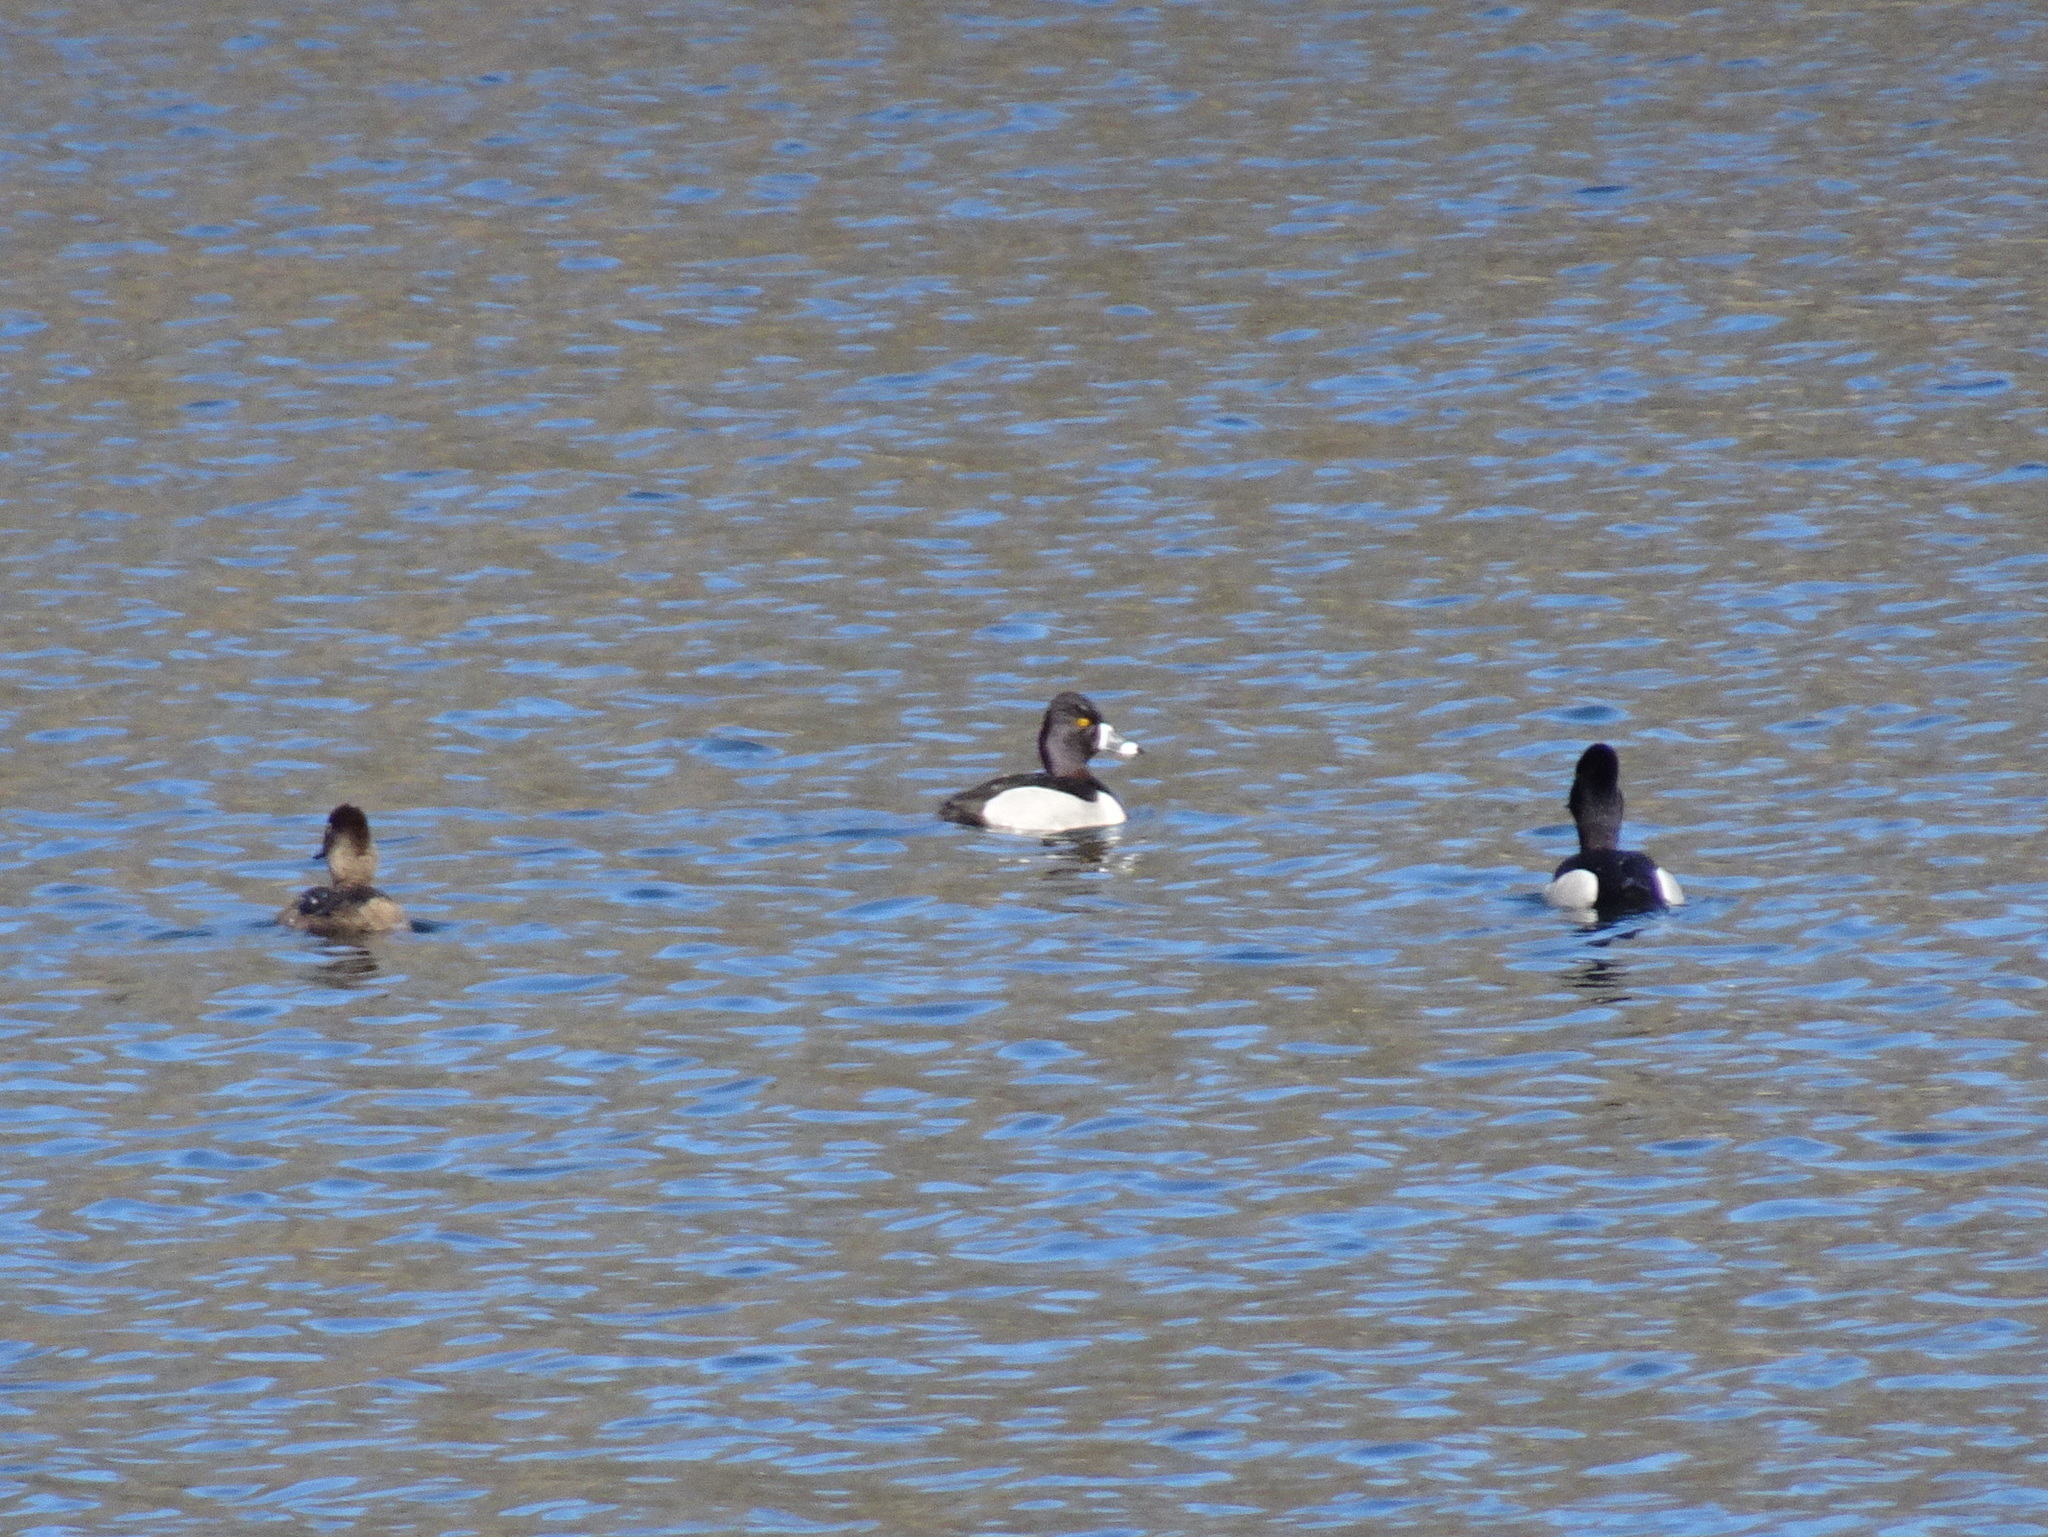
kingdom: Animalia
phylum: Chordata
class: Aves
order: Anseriformes
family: Anatidae
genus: Aythya
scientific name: Aythya collaris
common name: Ring-necked duck
